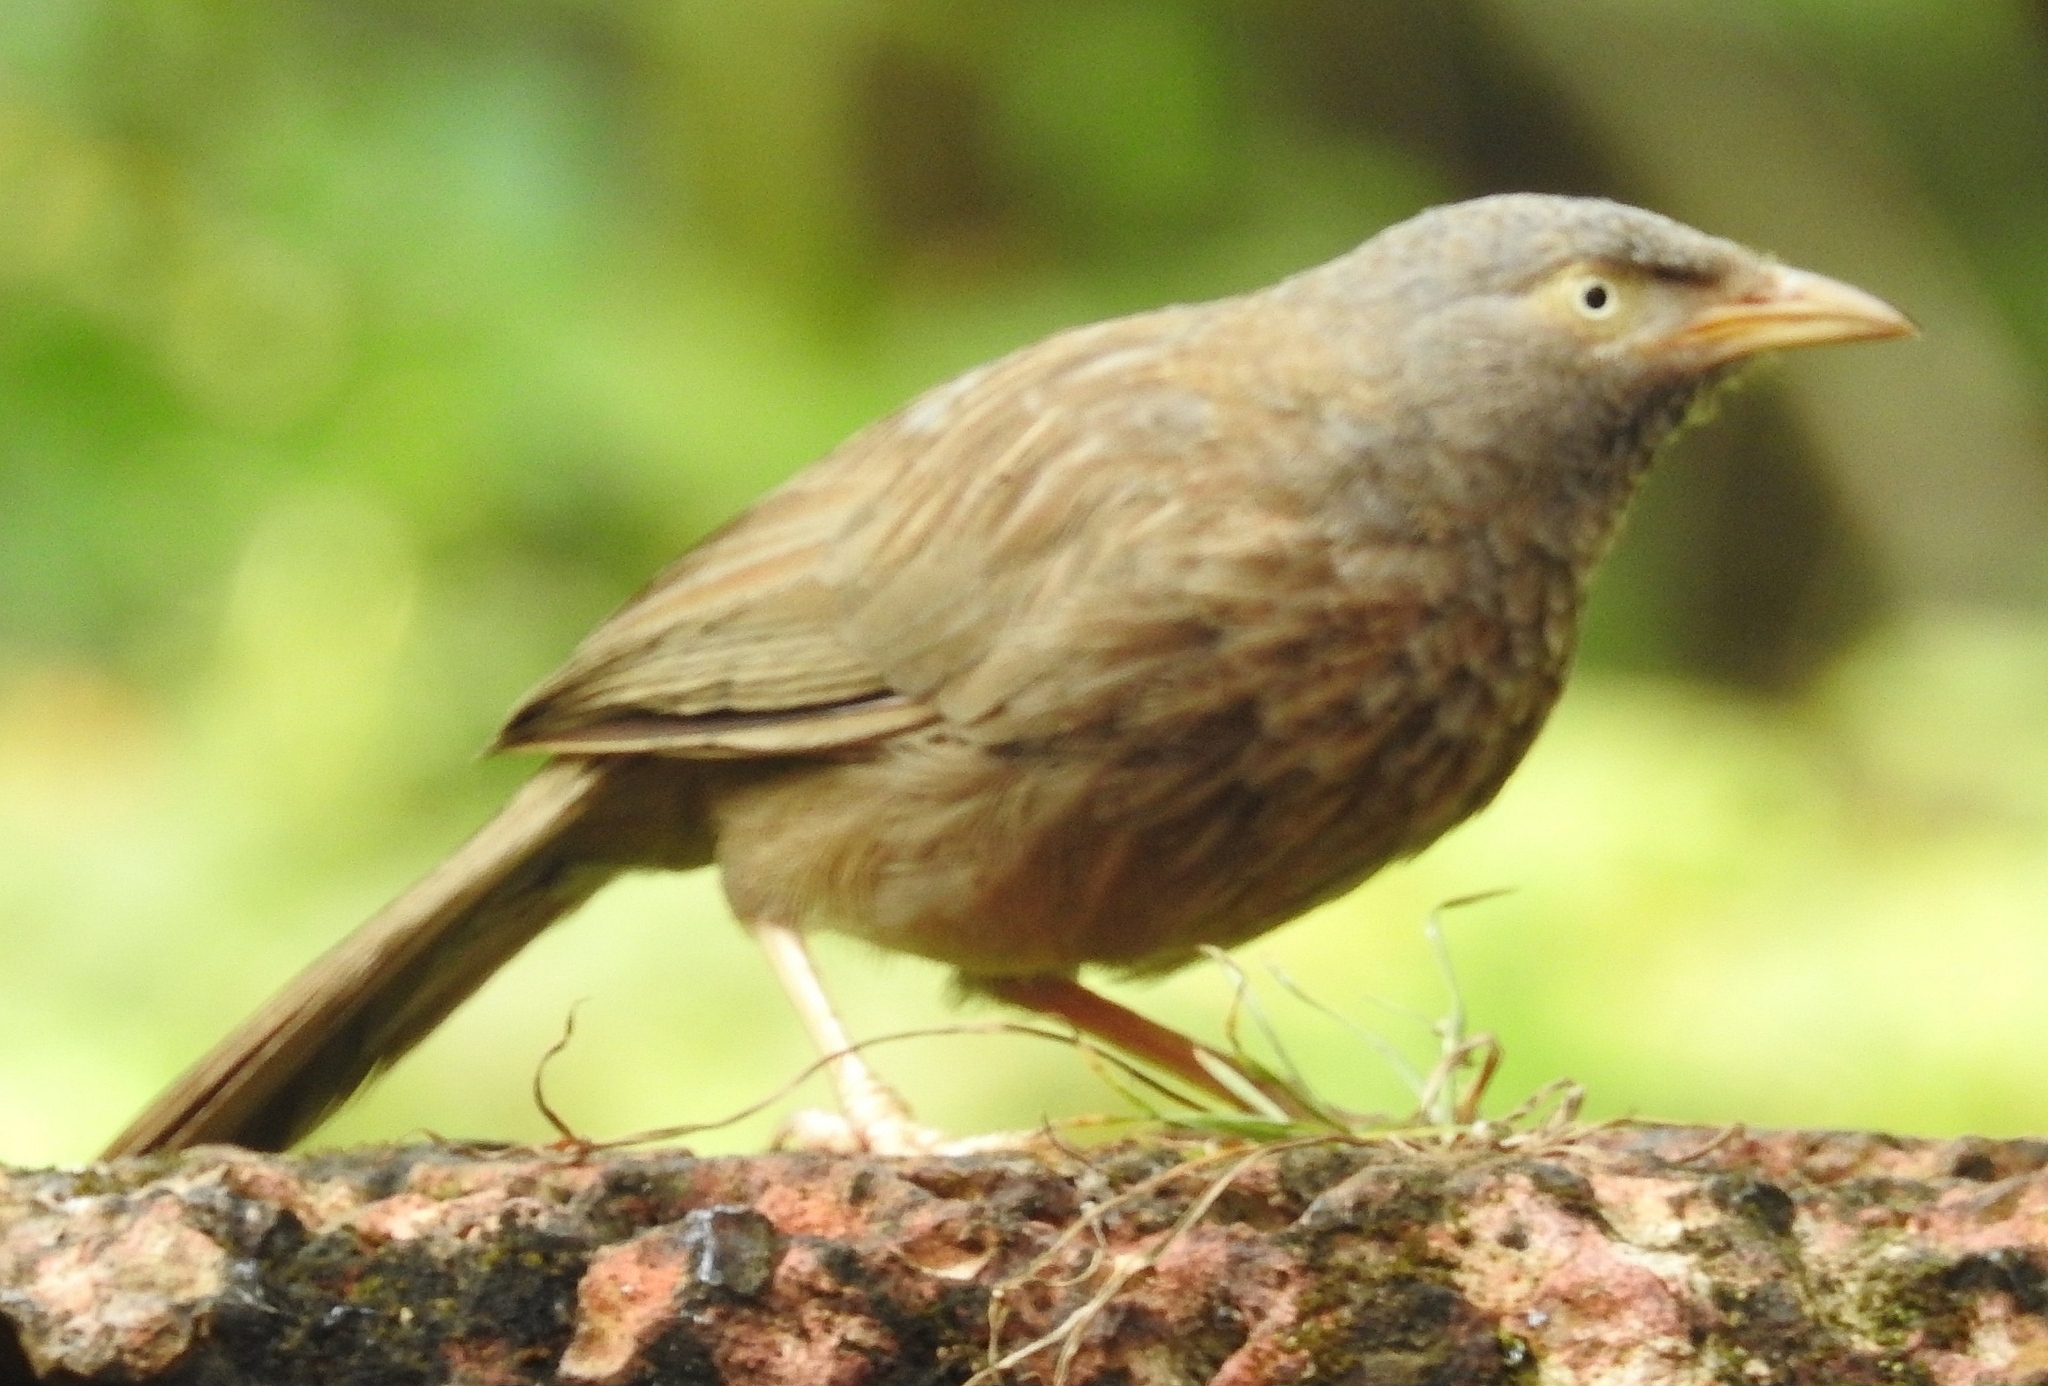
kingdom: Animalia
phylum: Chordata
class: Aves
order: Passeriformes
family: Leiothrichidae
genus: Turdoides
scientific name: Turdoides striata
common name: Jungle babbler
